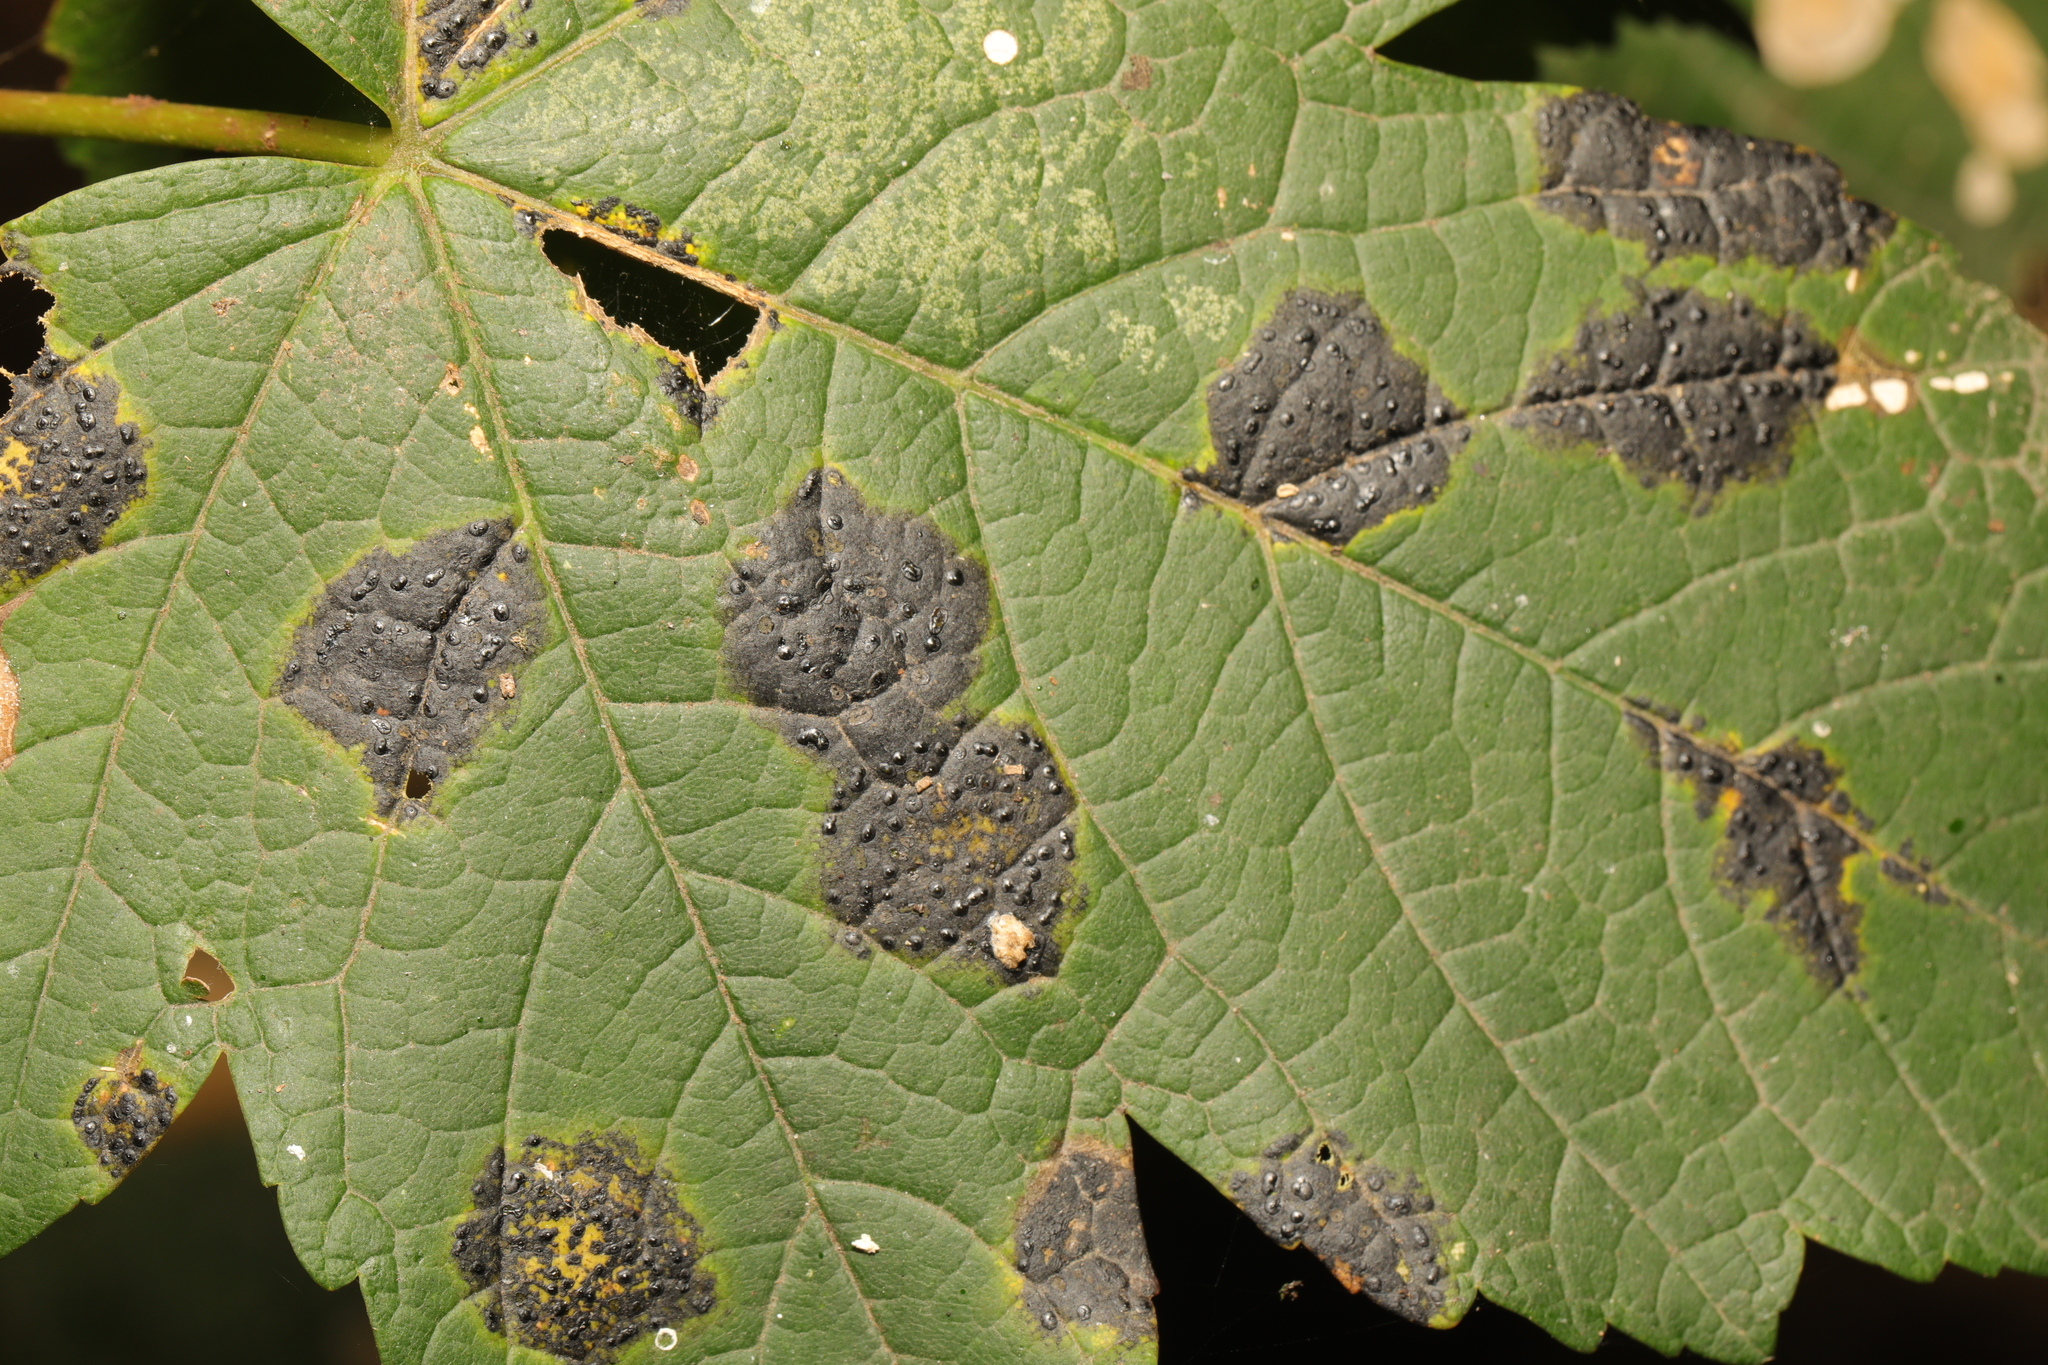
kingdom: Fungi
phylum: Ascomycota
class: Leotiomycetes
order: Rhytismatales
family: Rhytismataceae
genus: Rhytisma
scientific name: Rhytisma acerinum
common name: European tar spot
